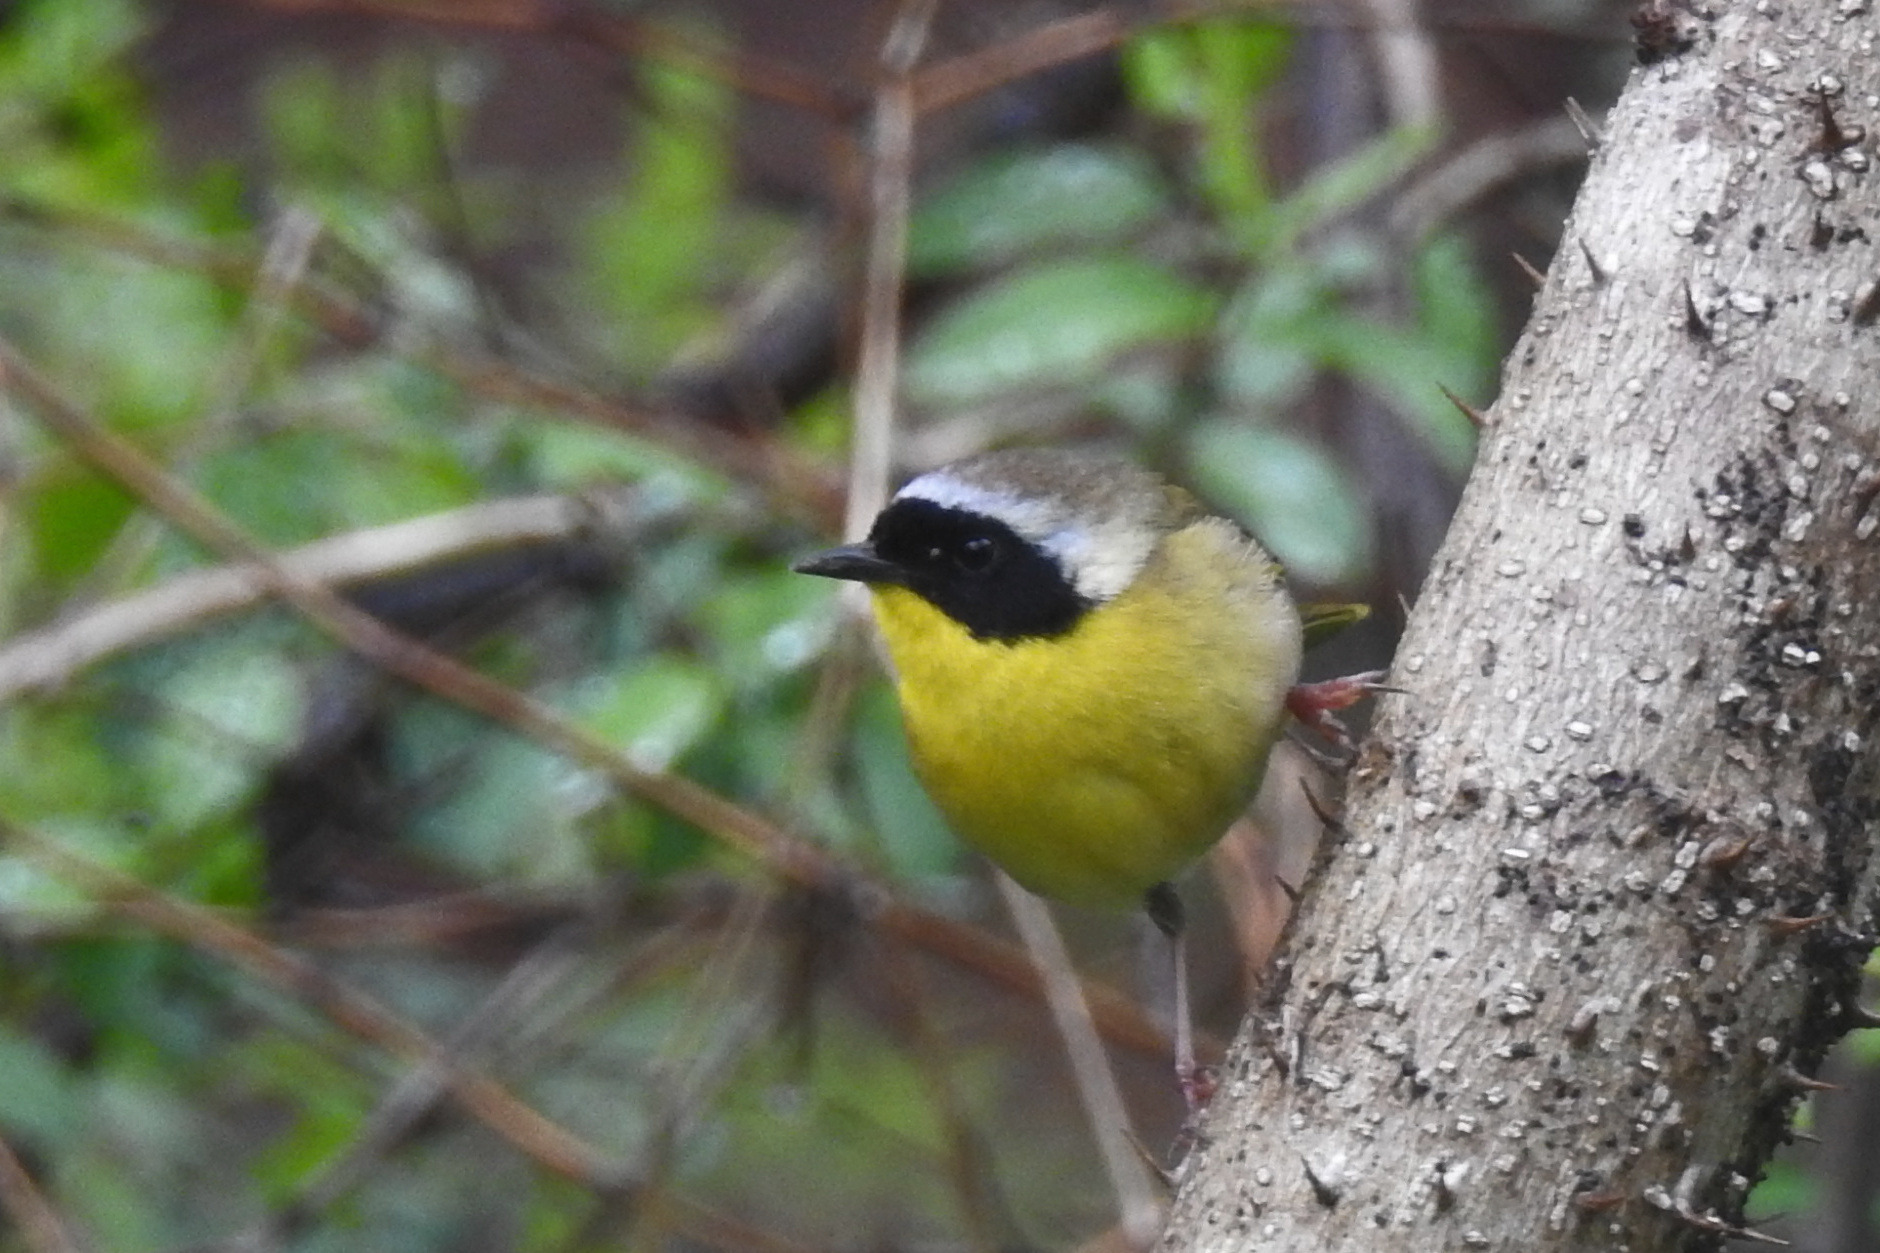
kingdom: Animalia
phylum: Chordata
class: Aves
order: Passeriformes
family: Parulidae
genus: Geothlypis
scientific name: Geothlypis trichas
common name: Common yellowthroat
